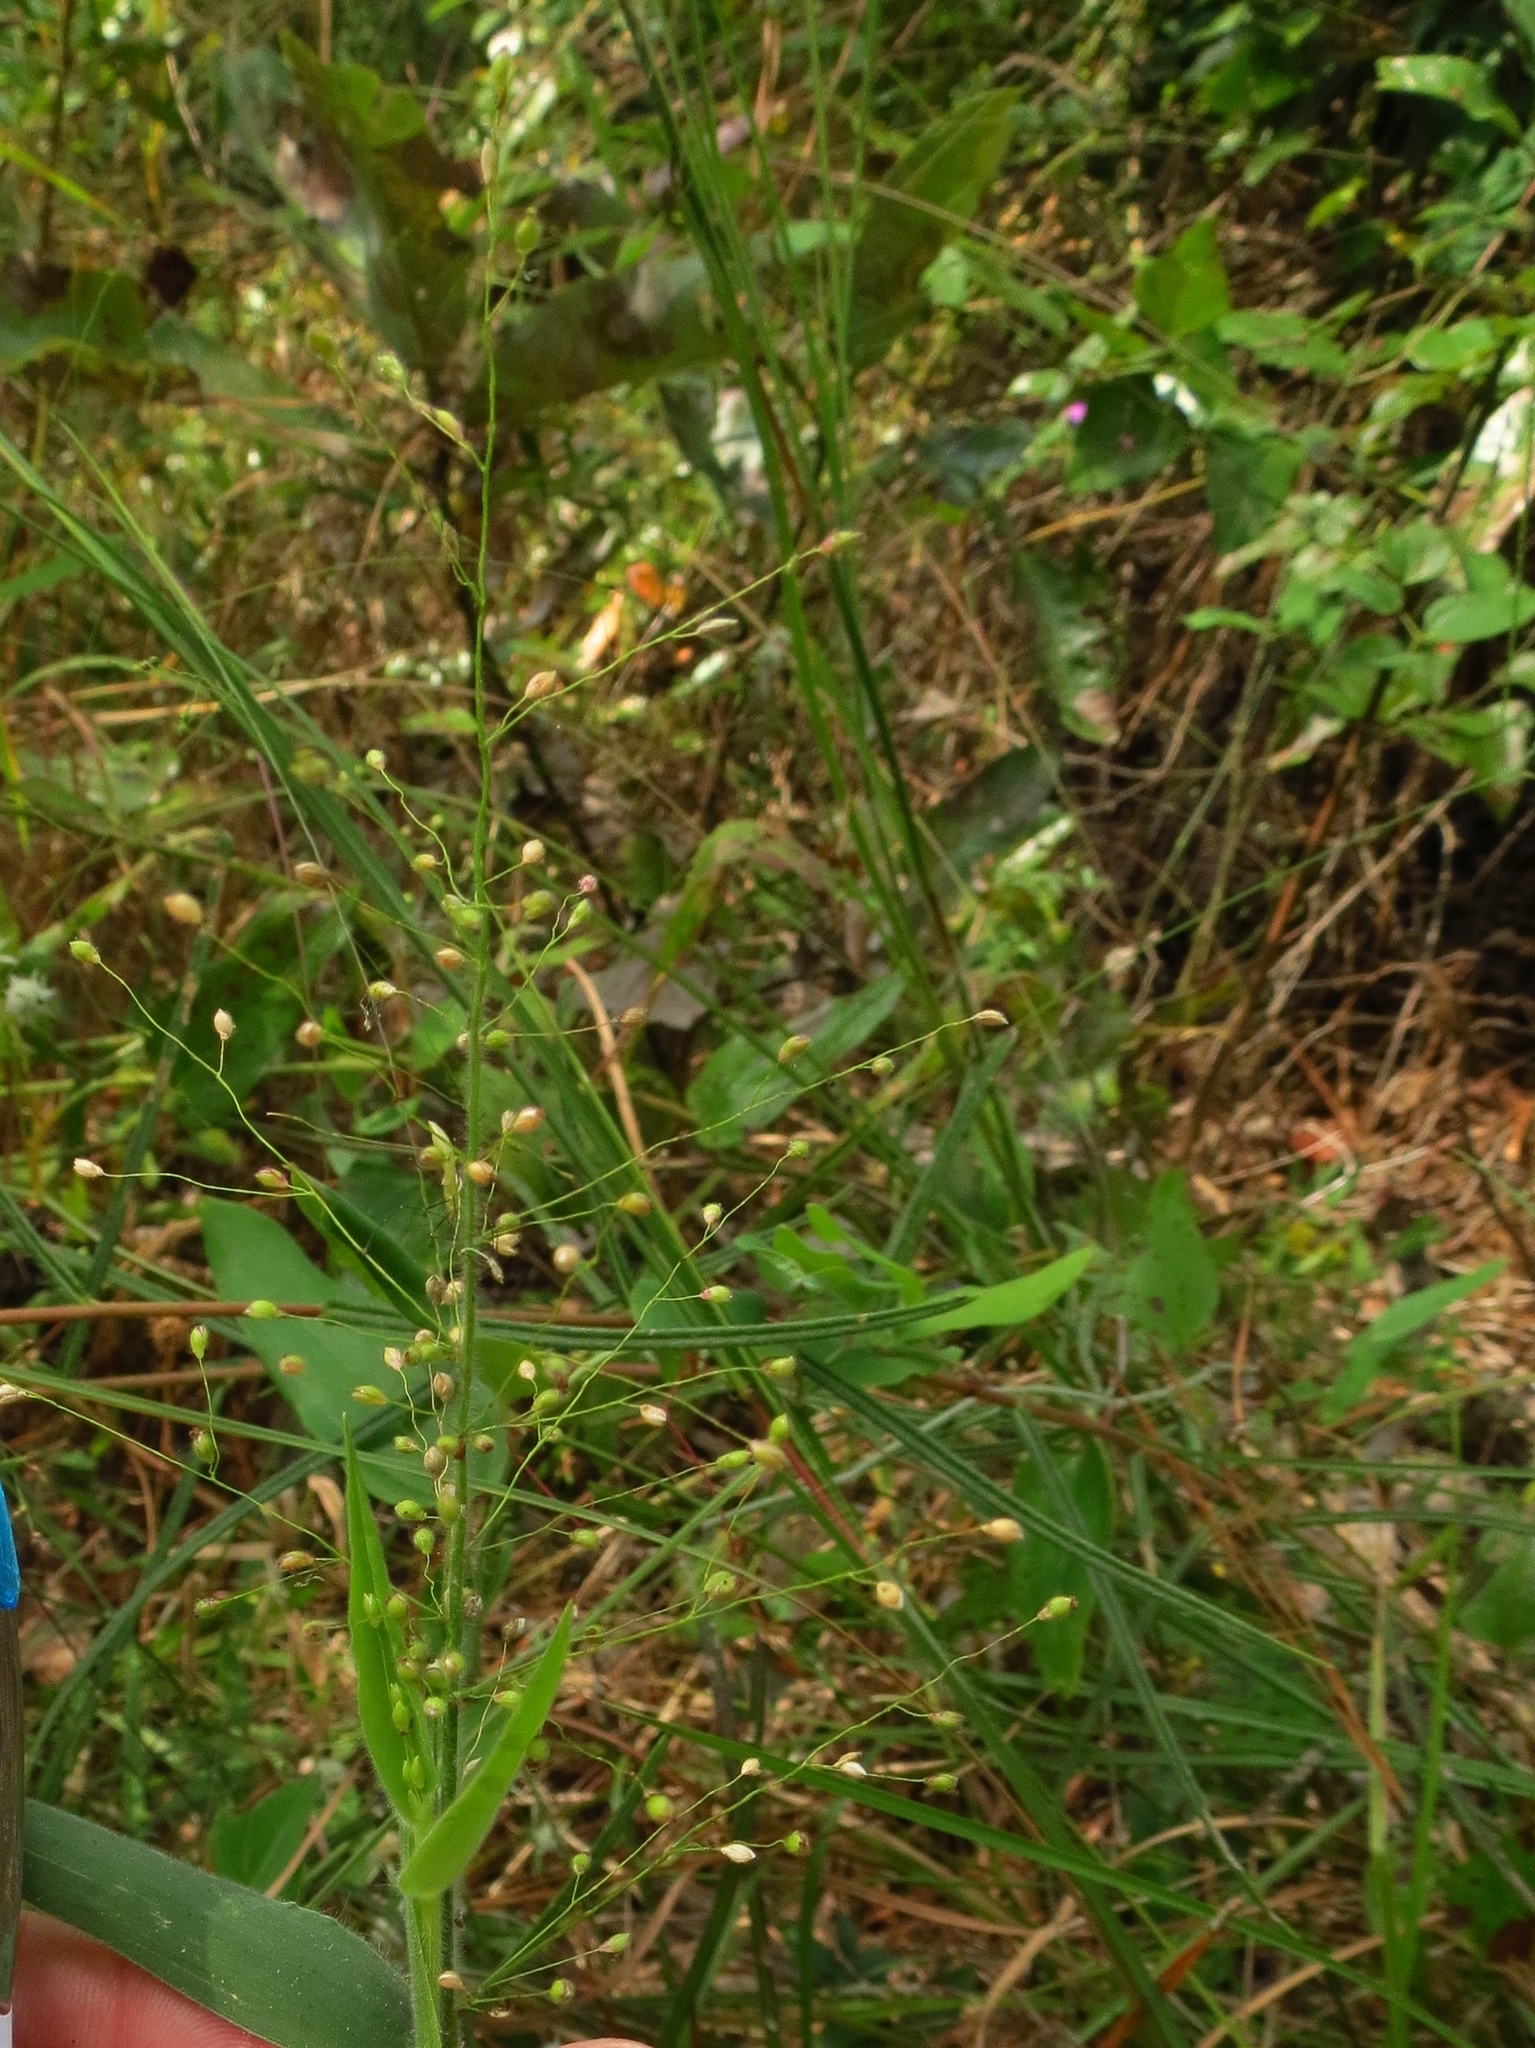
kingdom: Plantae
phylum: Tracheophyta
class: Liliopsida
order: Poales
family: Poaceae
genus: Dichanthelium
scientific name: Dichanthelium scoparium
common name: Velvety panic grass
